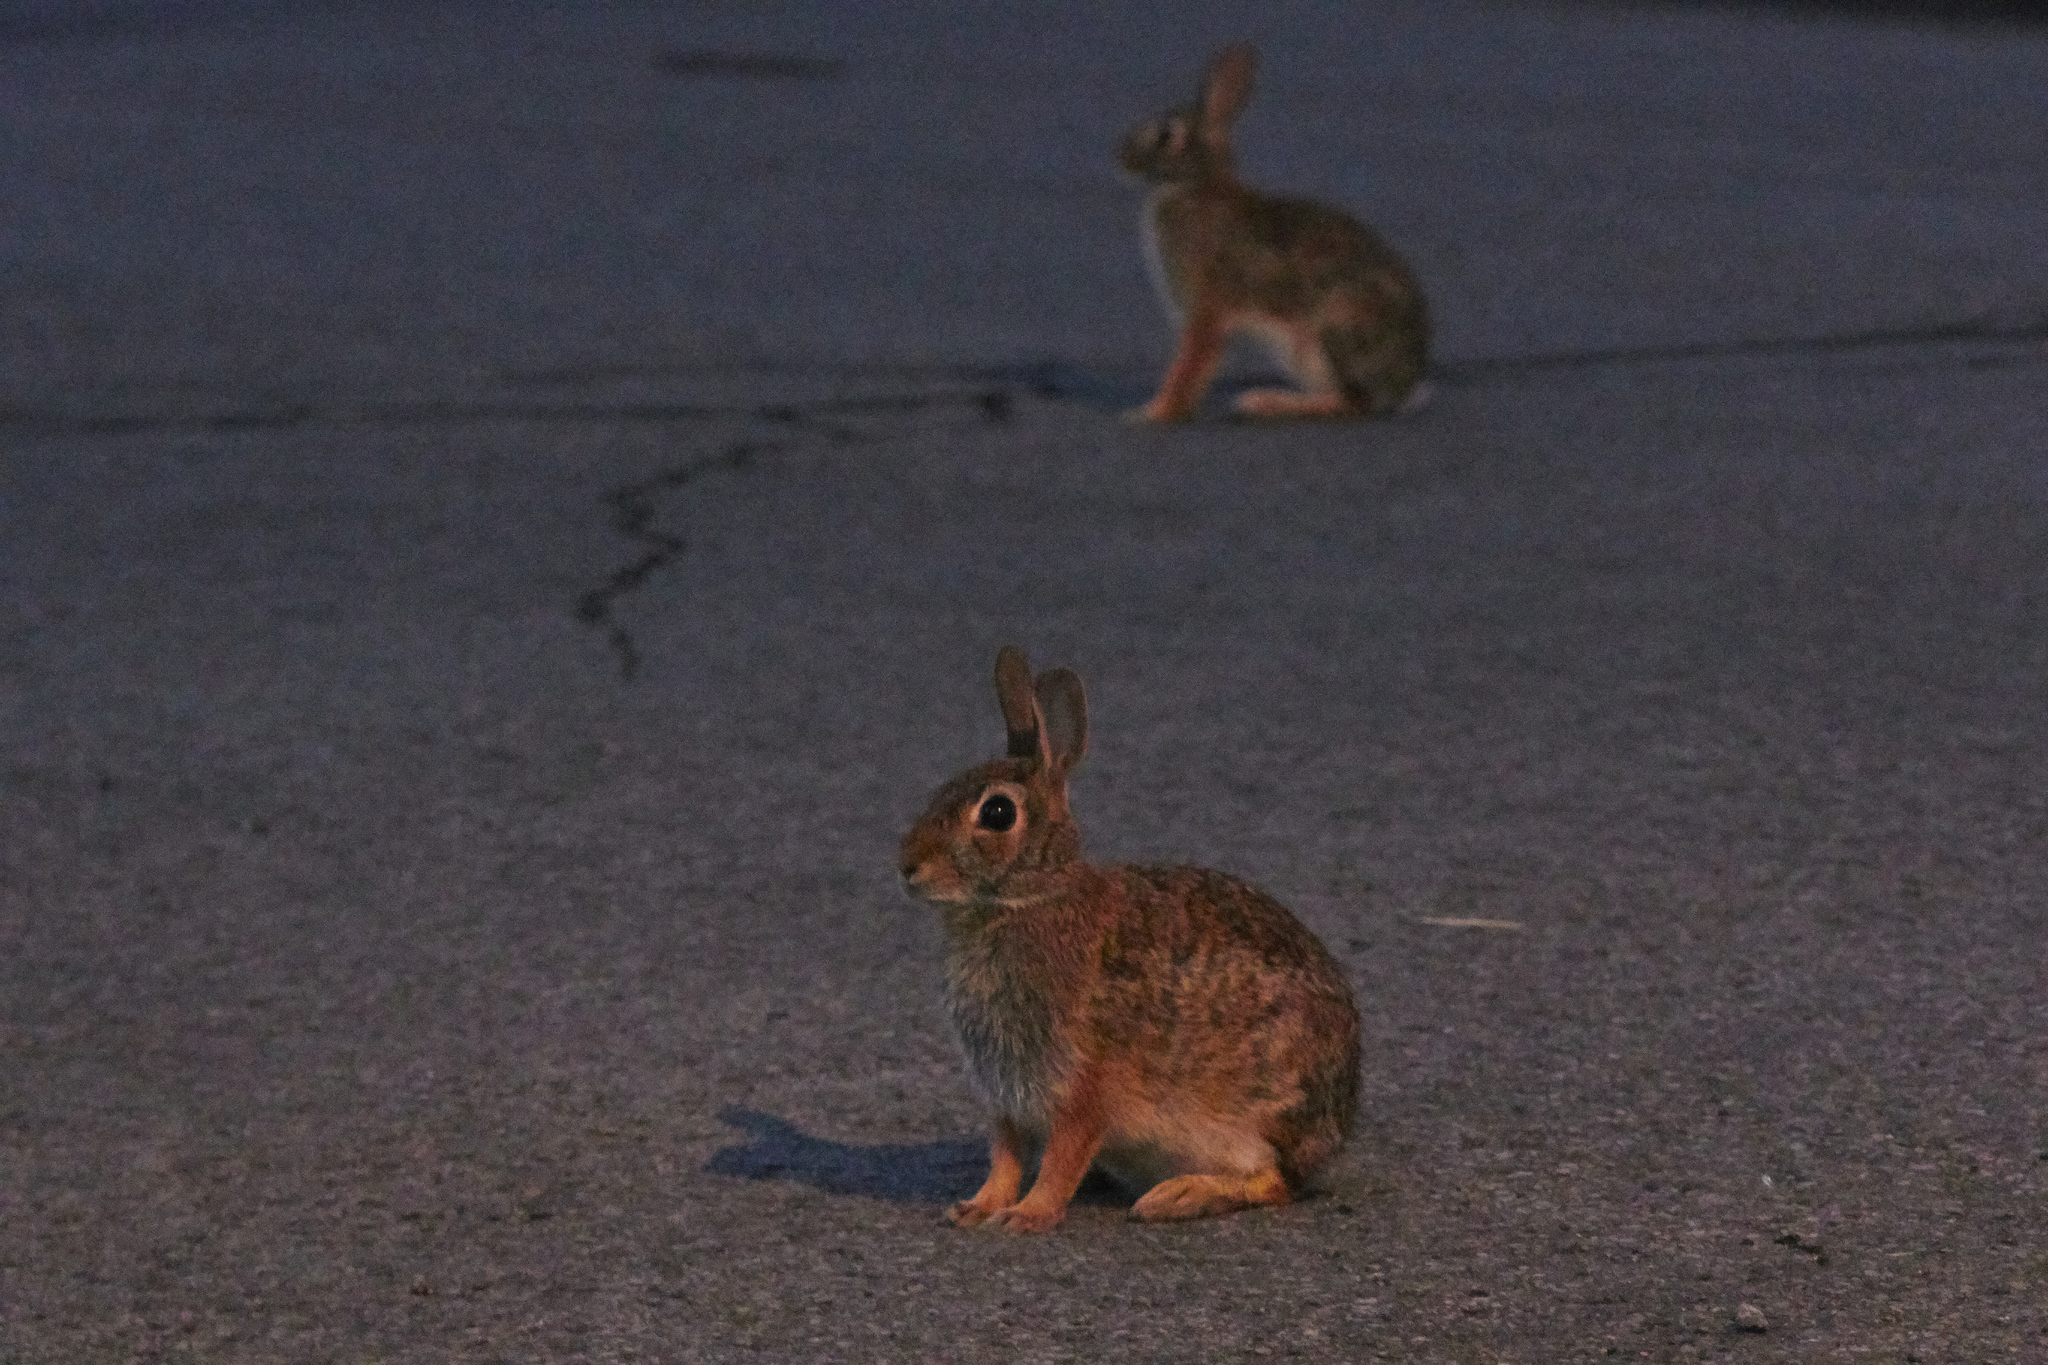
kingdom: Animalia
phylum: Chordata
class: Mammalia
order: Lagomorpha
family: Leporidae
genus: Sylvilagus
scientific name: Sylvilagus floridanus
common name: Eastern cottontail
